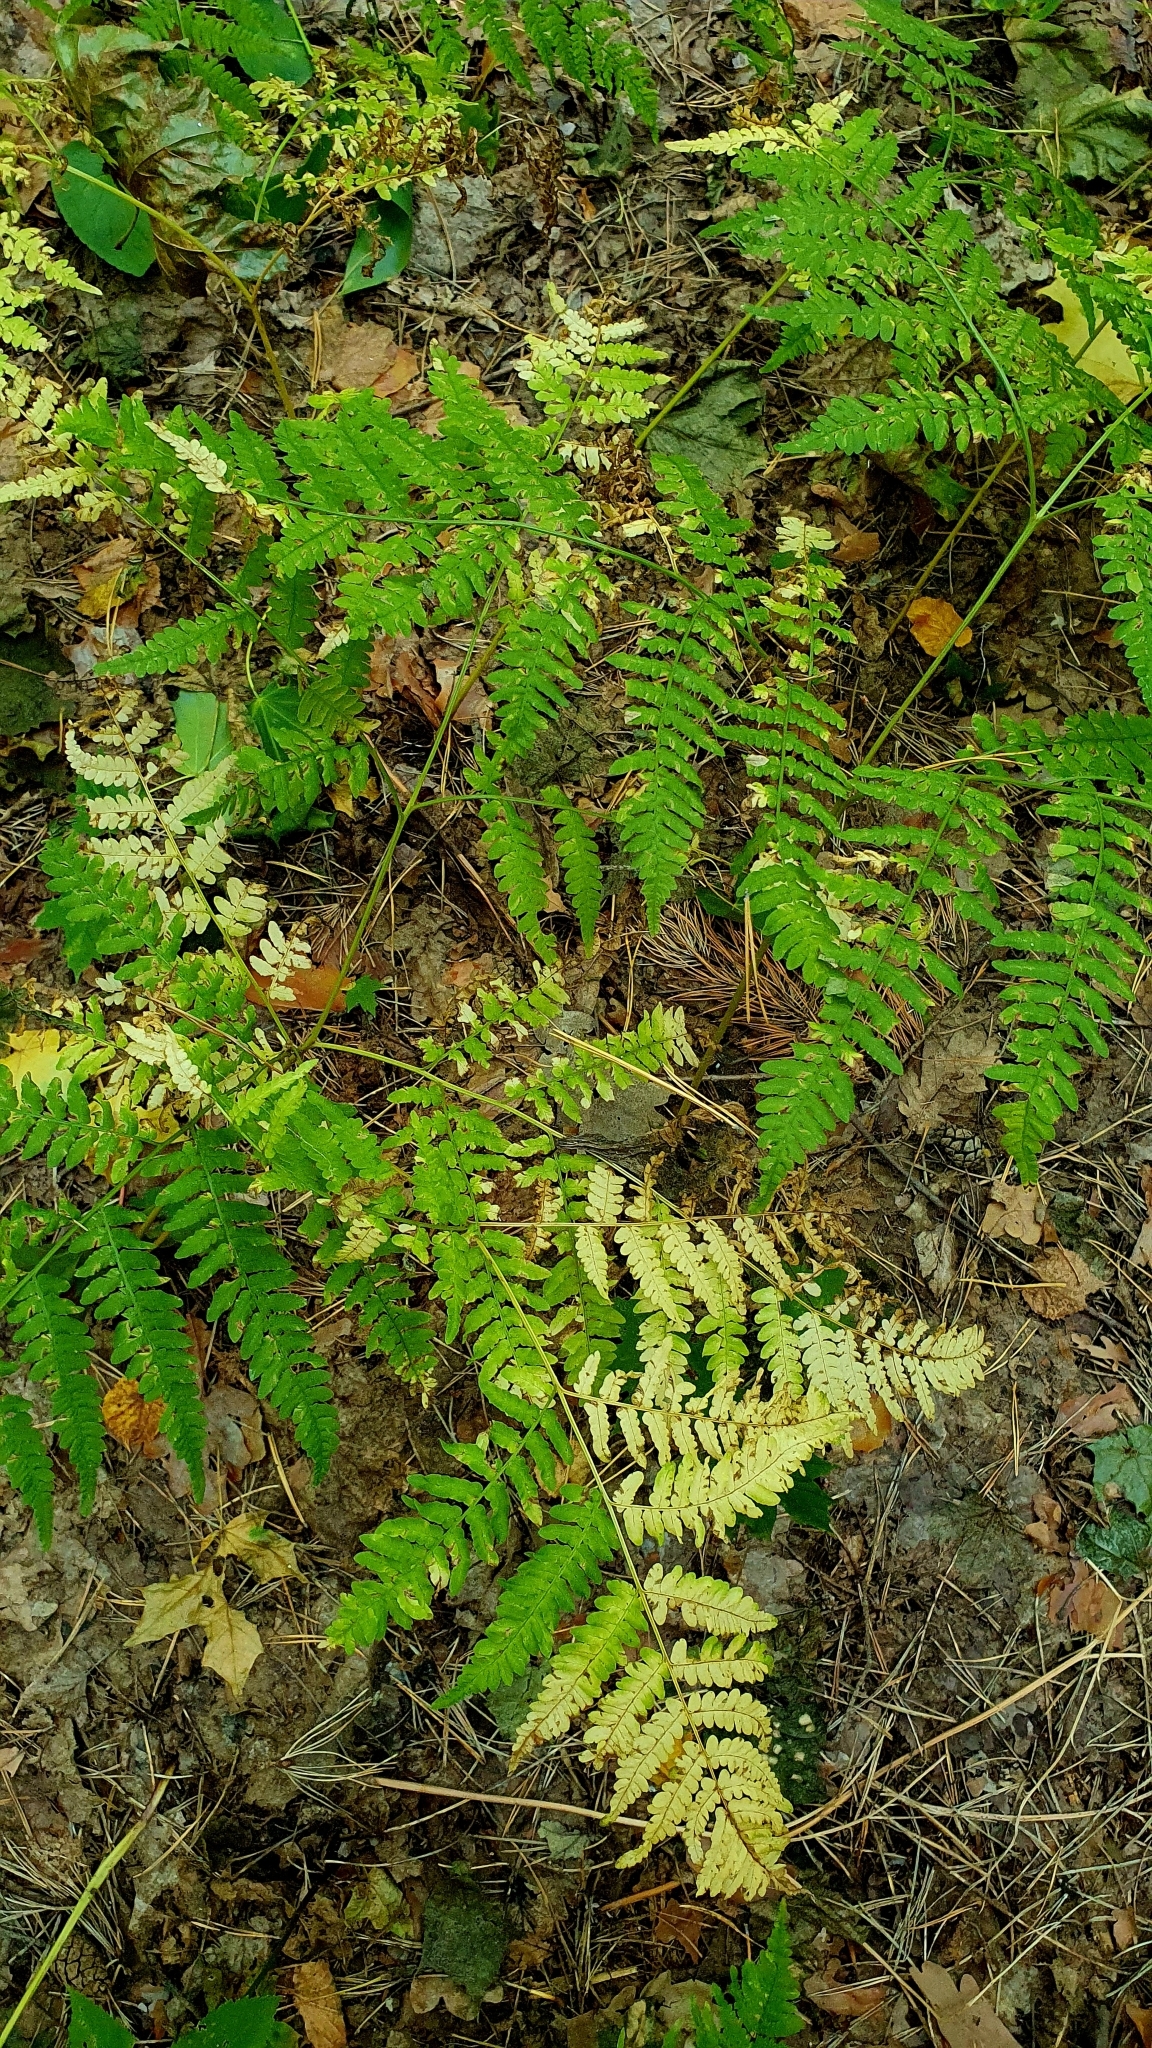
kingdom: Plantae
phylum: Tracheophyta
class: Polypodiopsida
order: Polypodiales
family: Dennstaedtiaceae
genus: Pteridium
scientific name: Pteridium aquilinum
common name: Bracken
